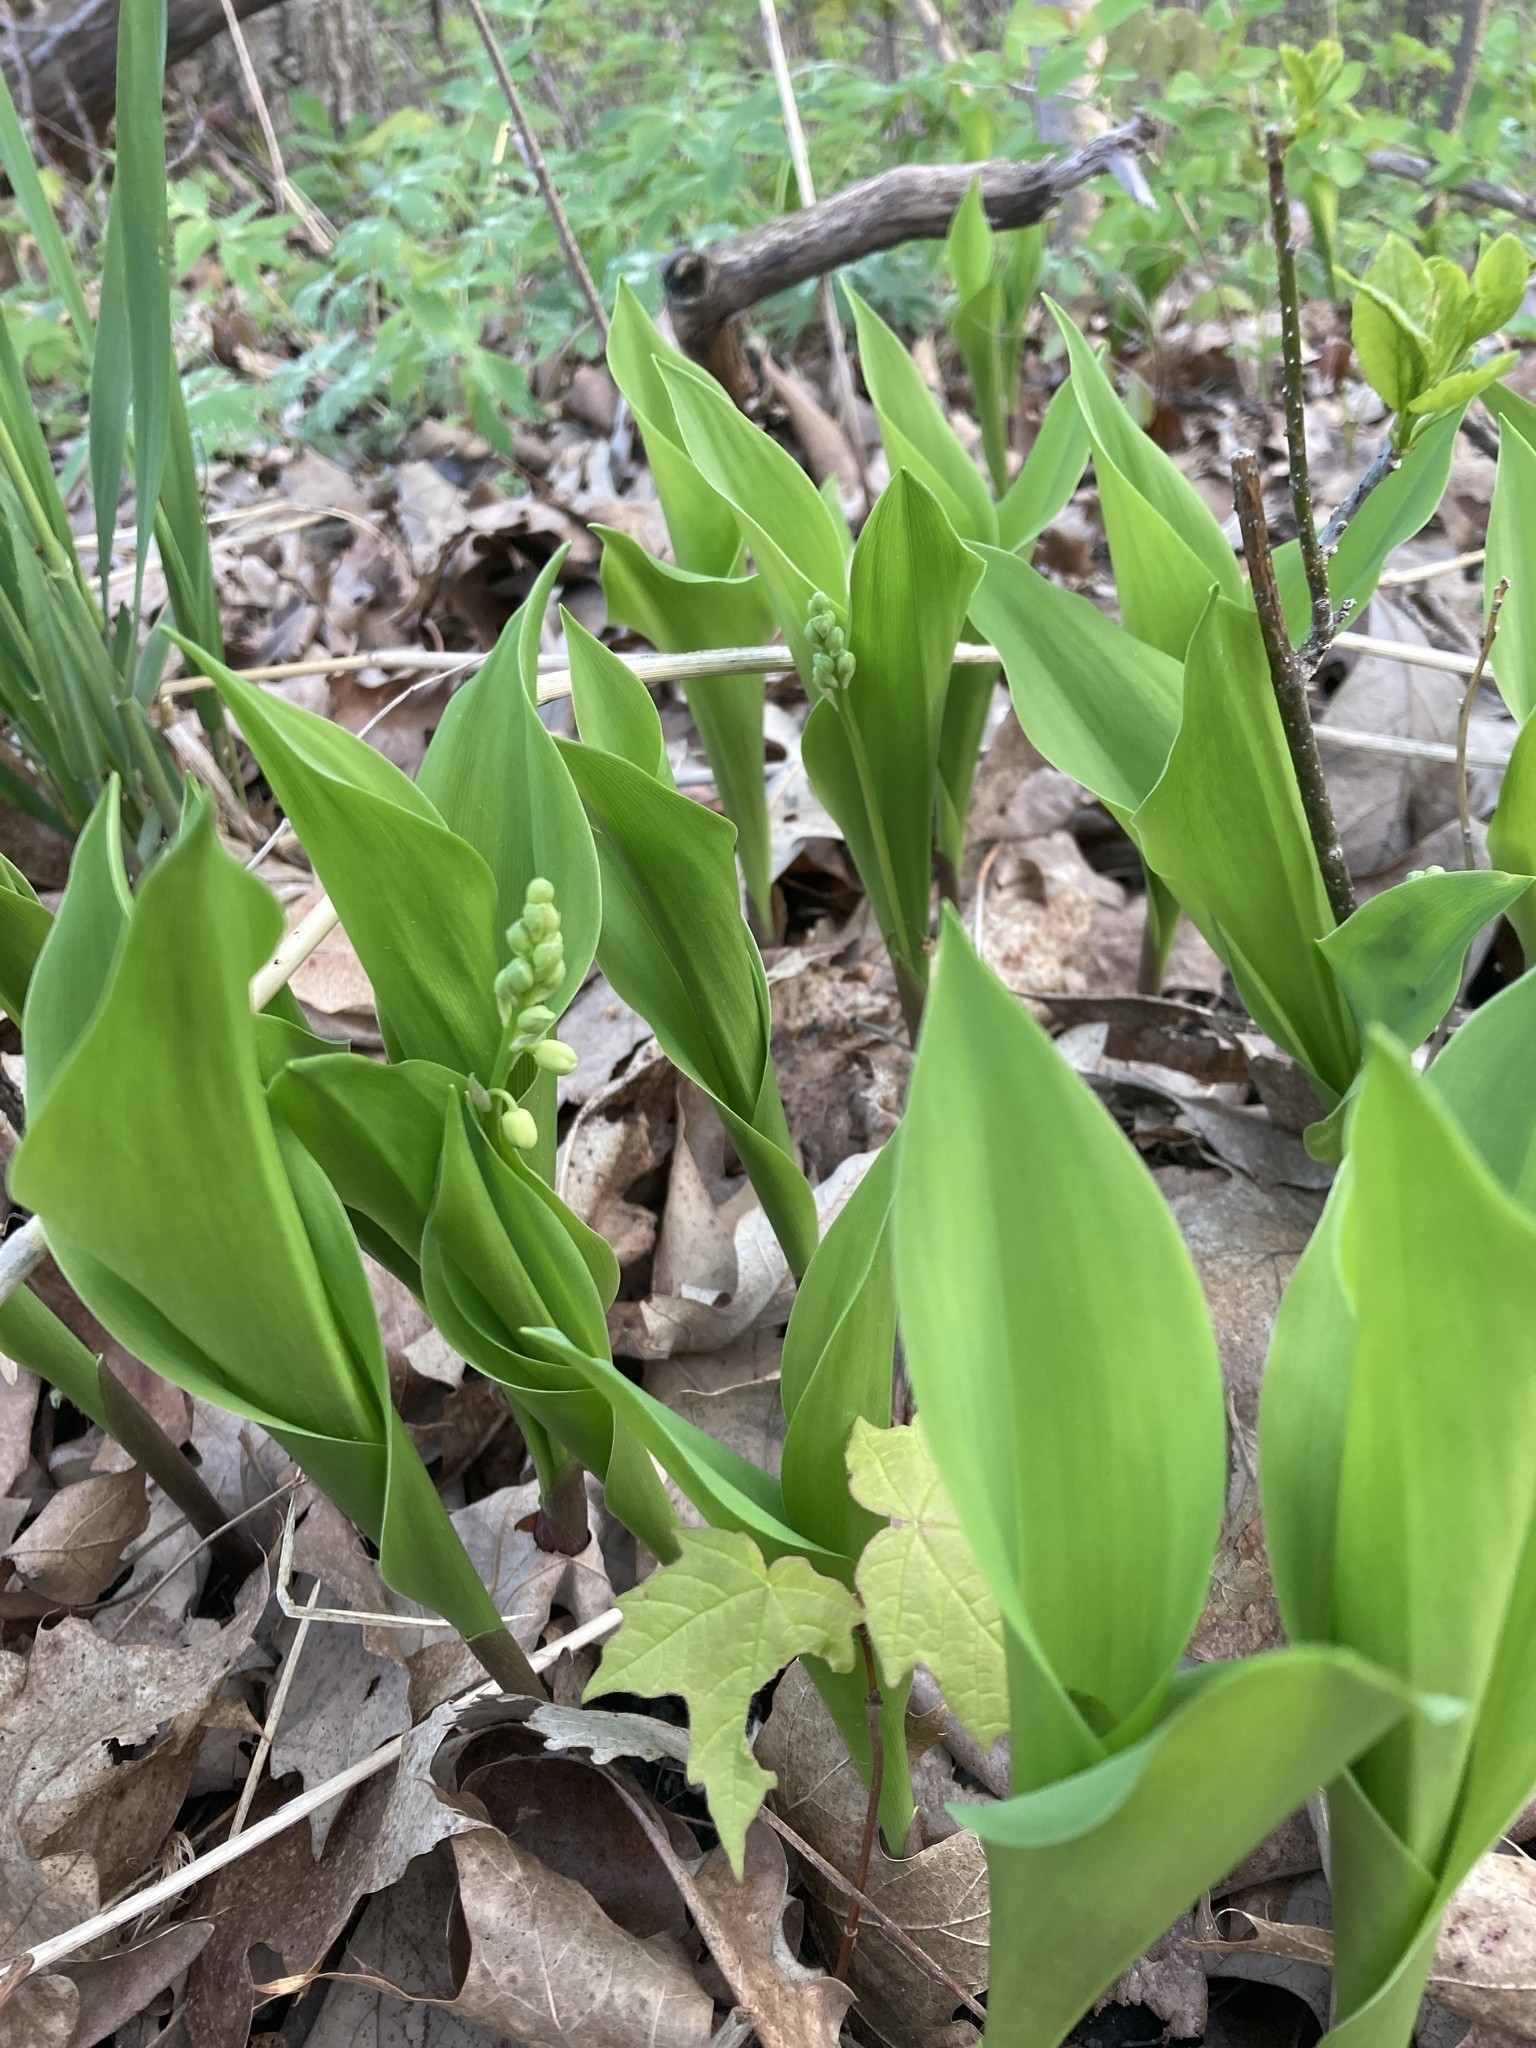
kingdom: Plantae
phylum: Tracheophyta
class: Liliopsida
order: Asparagales
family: Asparagaceae
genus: Convallaria
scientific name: Convallaria majalis
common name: Lily-of-the-valley
